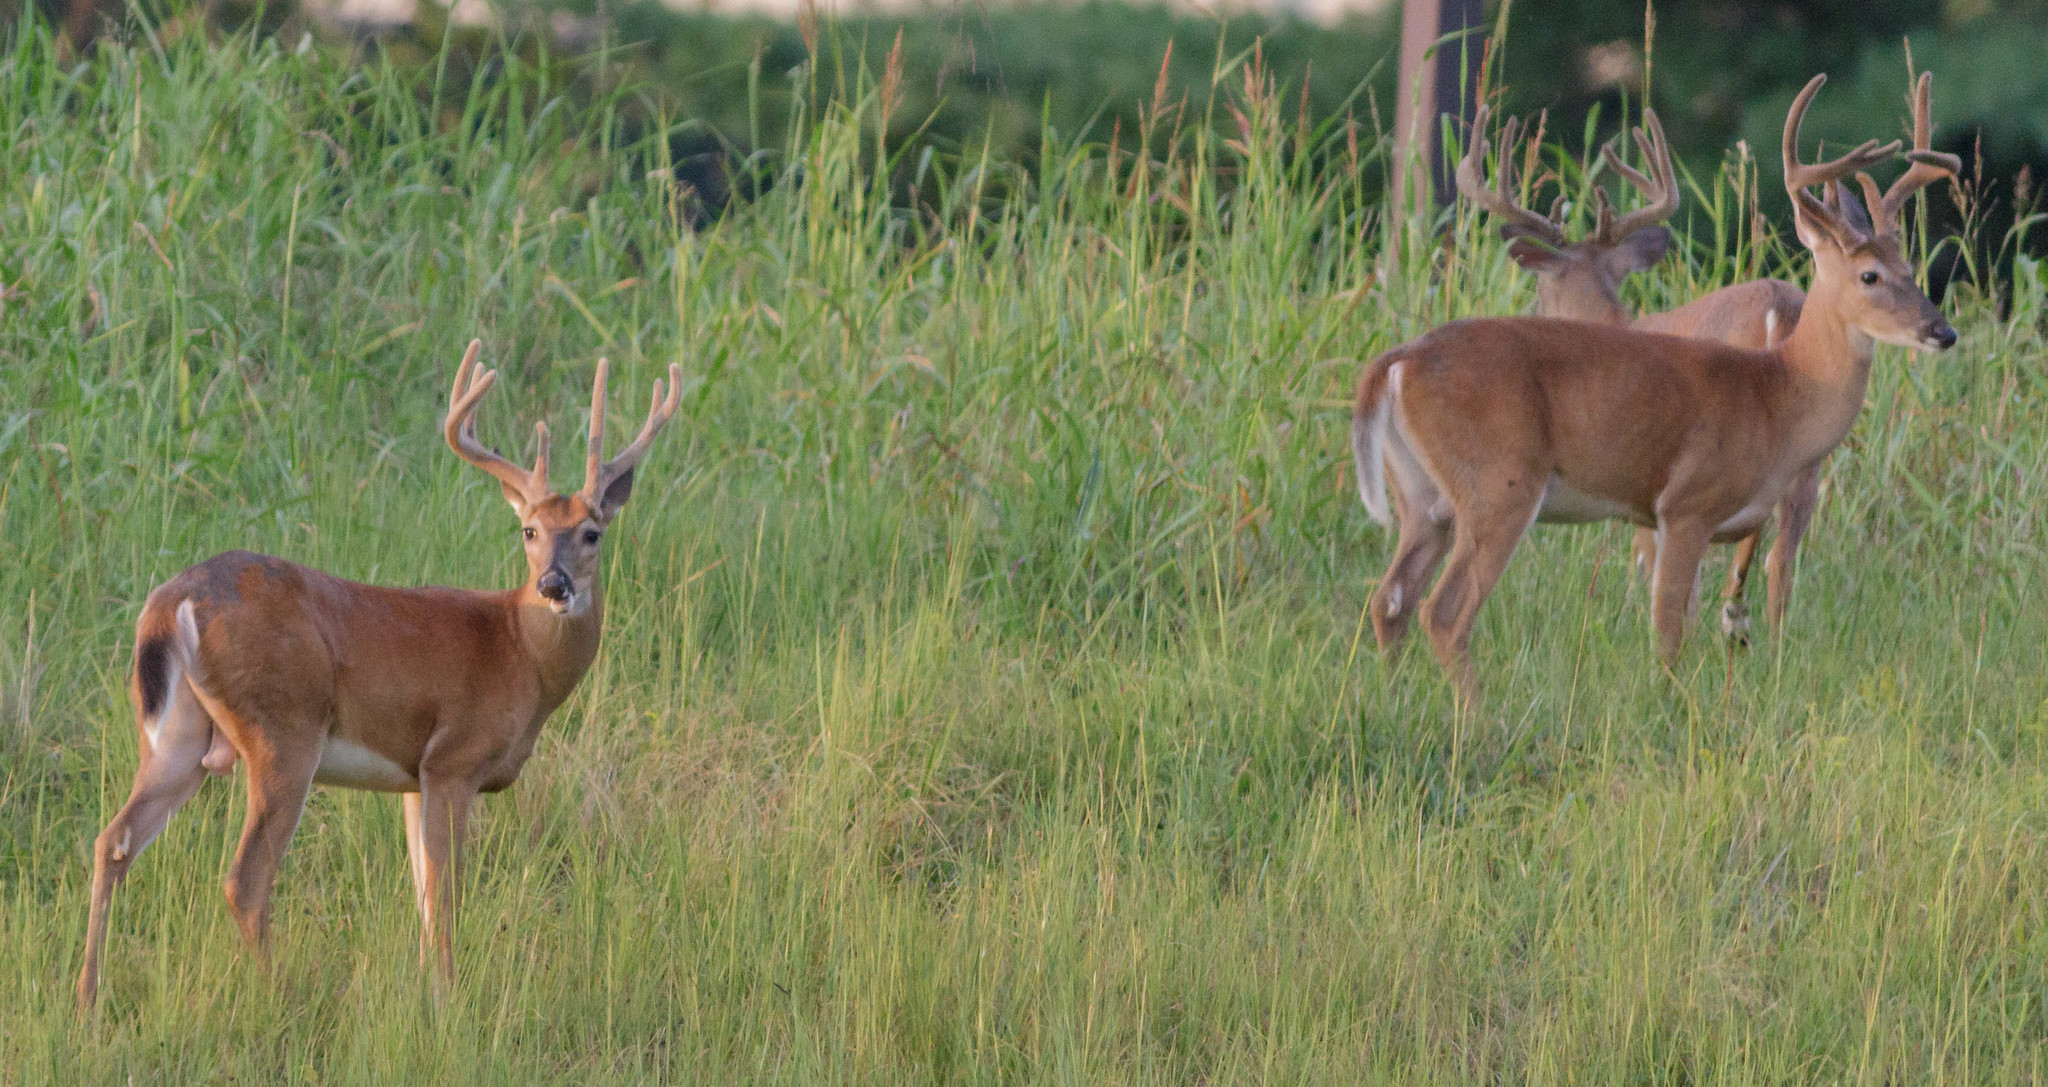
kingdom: Animalia
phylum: Chordata
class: Mammalia
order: Artiodactyla
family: Cervidae
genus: Odocoileus
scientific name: Odocoileus virginianus
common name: White-tailed deer
